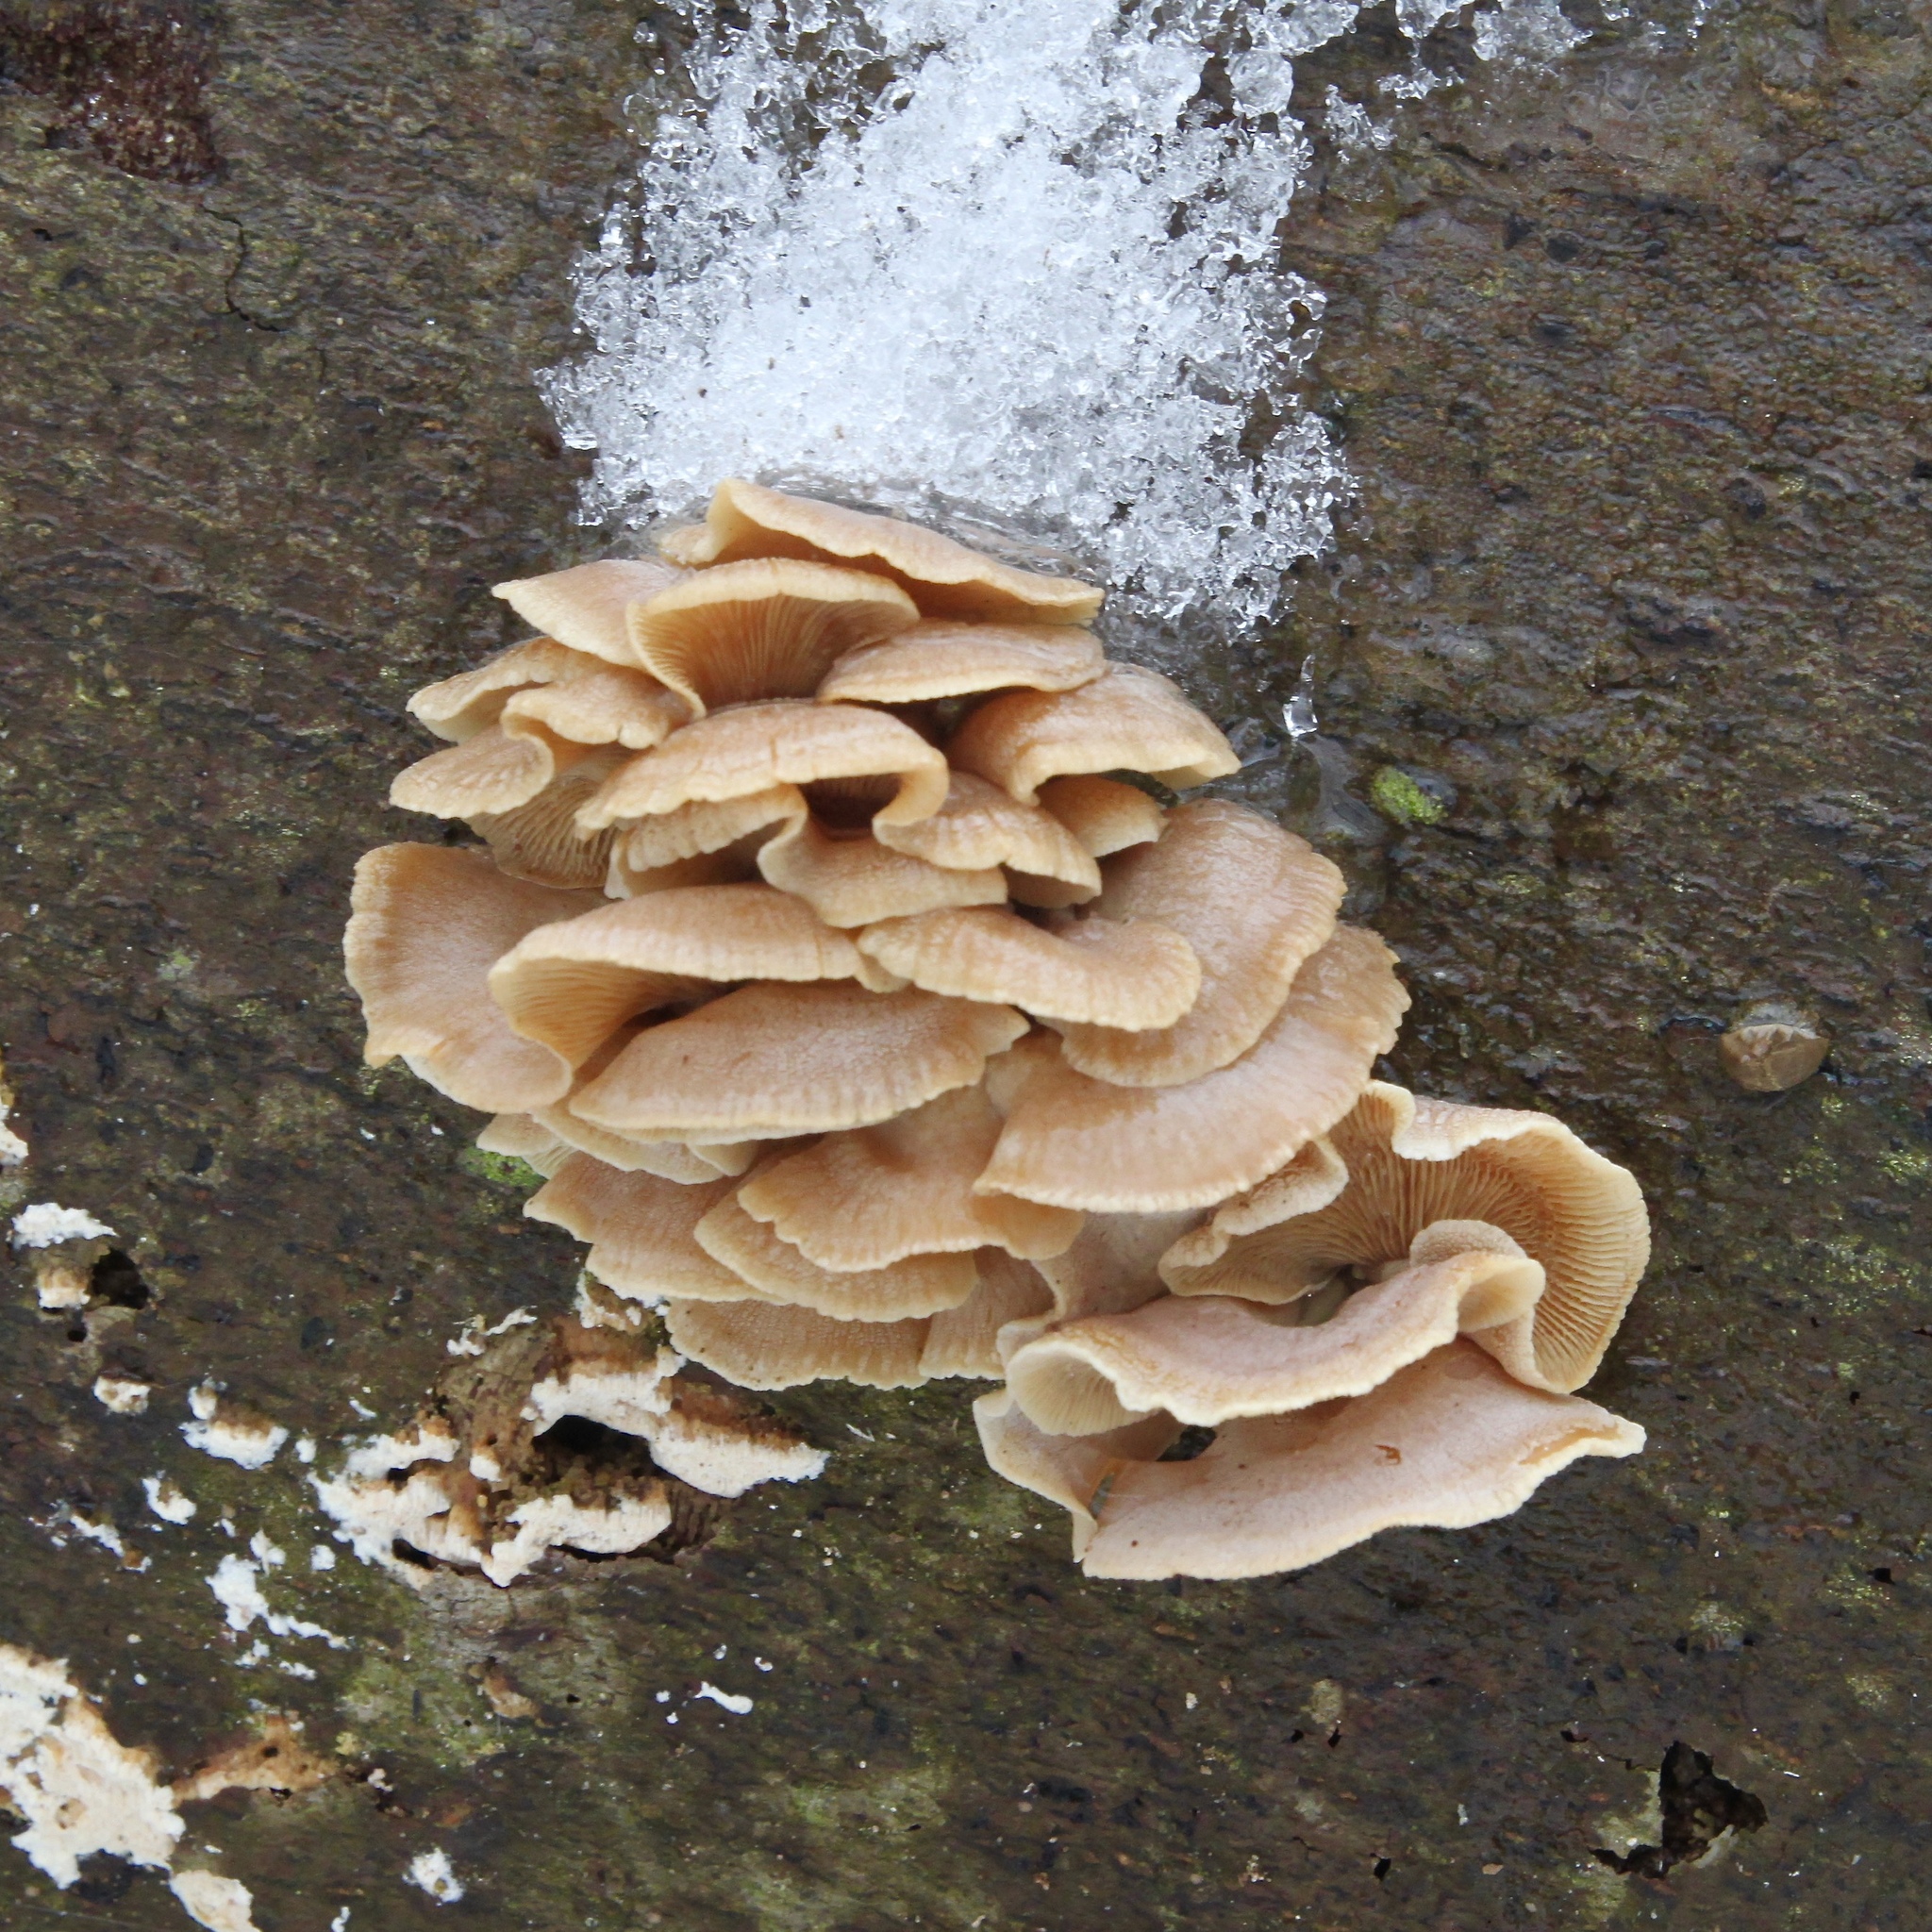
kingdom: Fungi
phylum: Basidiomycota
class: Agaricomycetes
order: Agaricales
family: Mycenaceae
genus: Panellus
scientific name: Panellus stipticus
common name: Bitter oysterling
